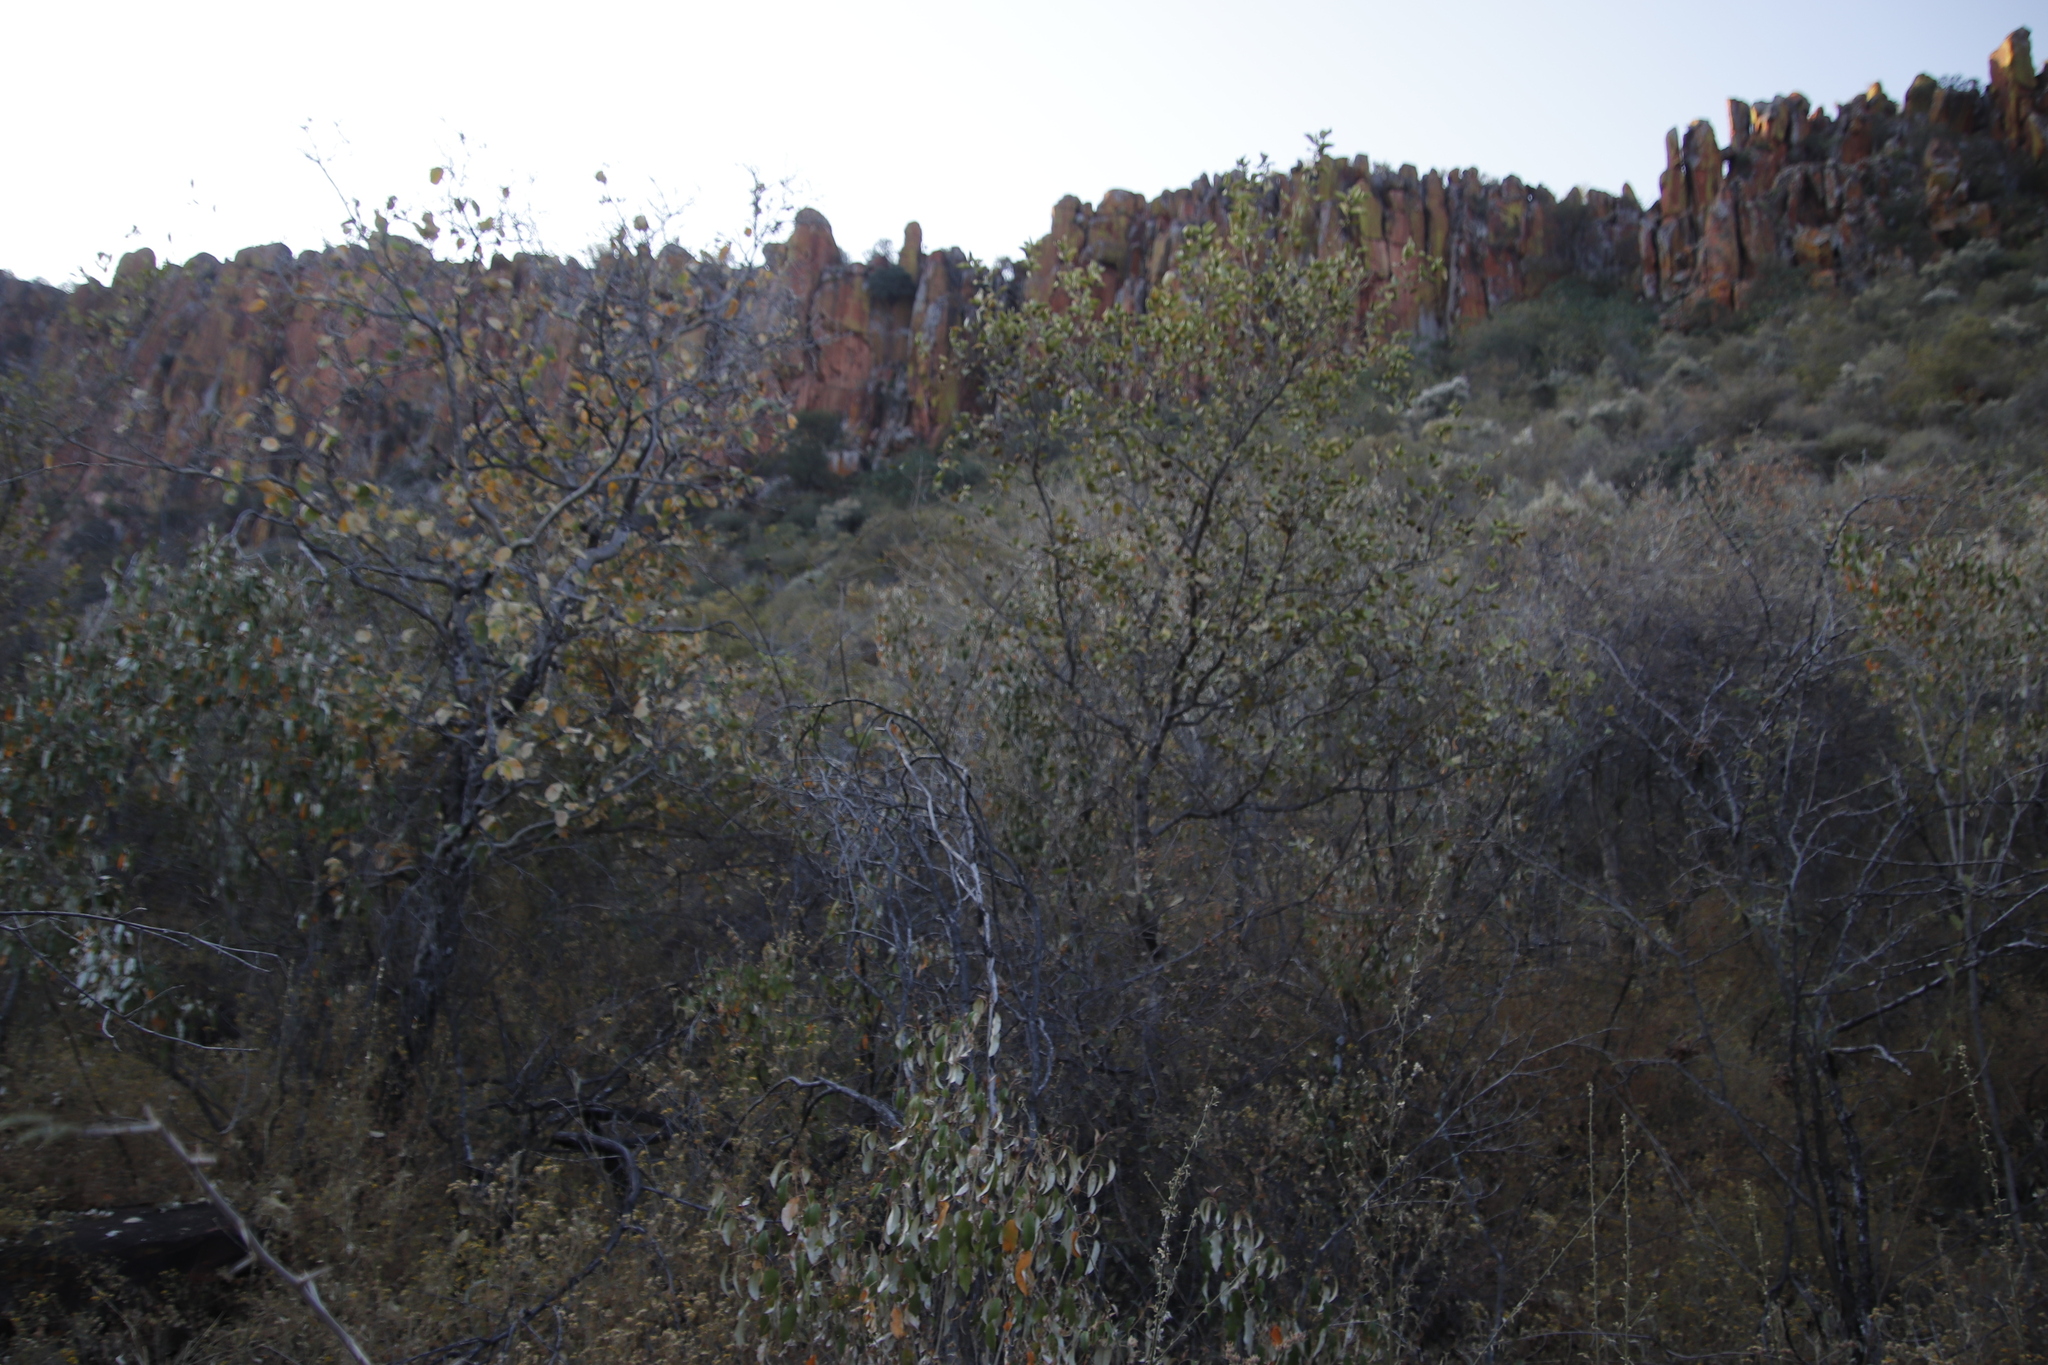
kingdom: Plantae
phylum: Tracheophyta
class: Magnoliopsida
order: Myrtales
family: Combretaceae
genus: Combretum
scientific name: Combretum apiculatum
